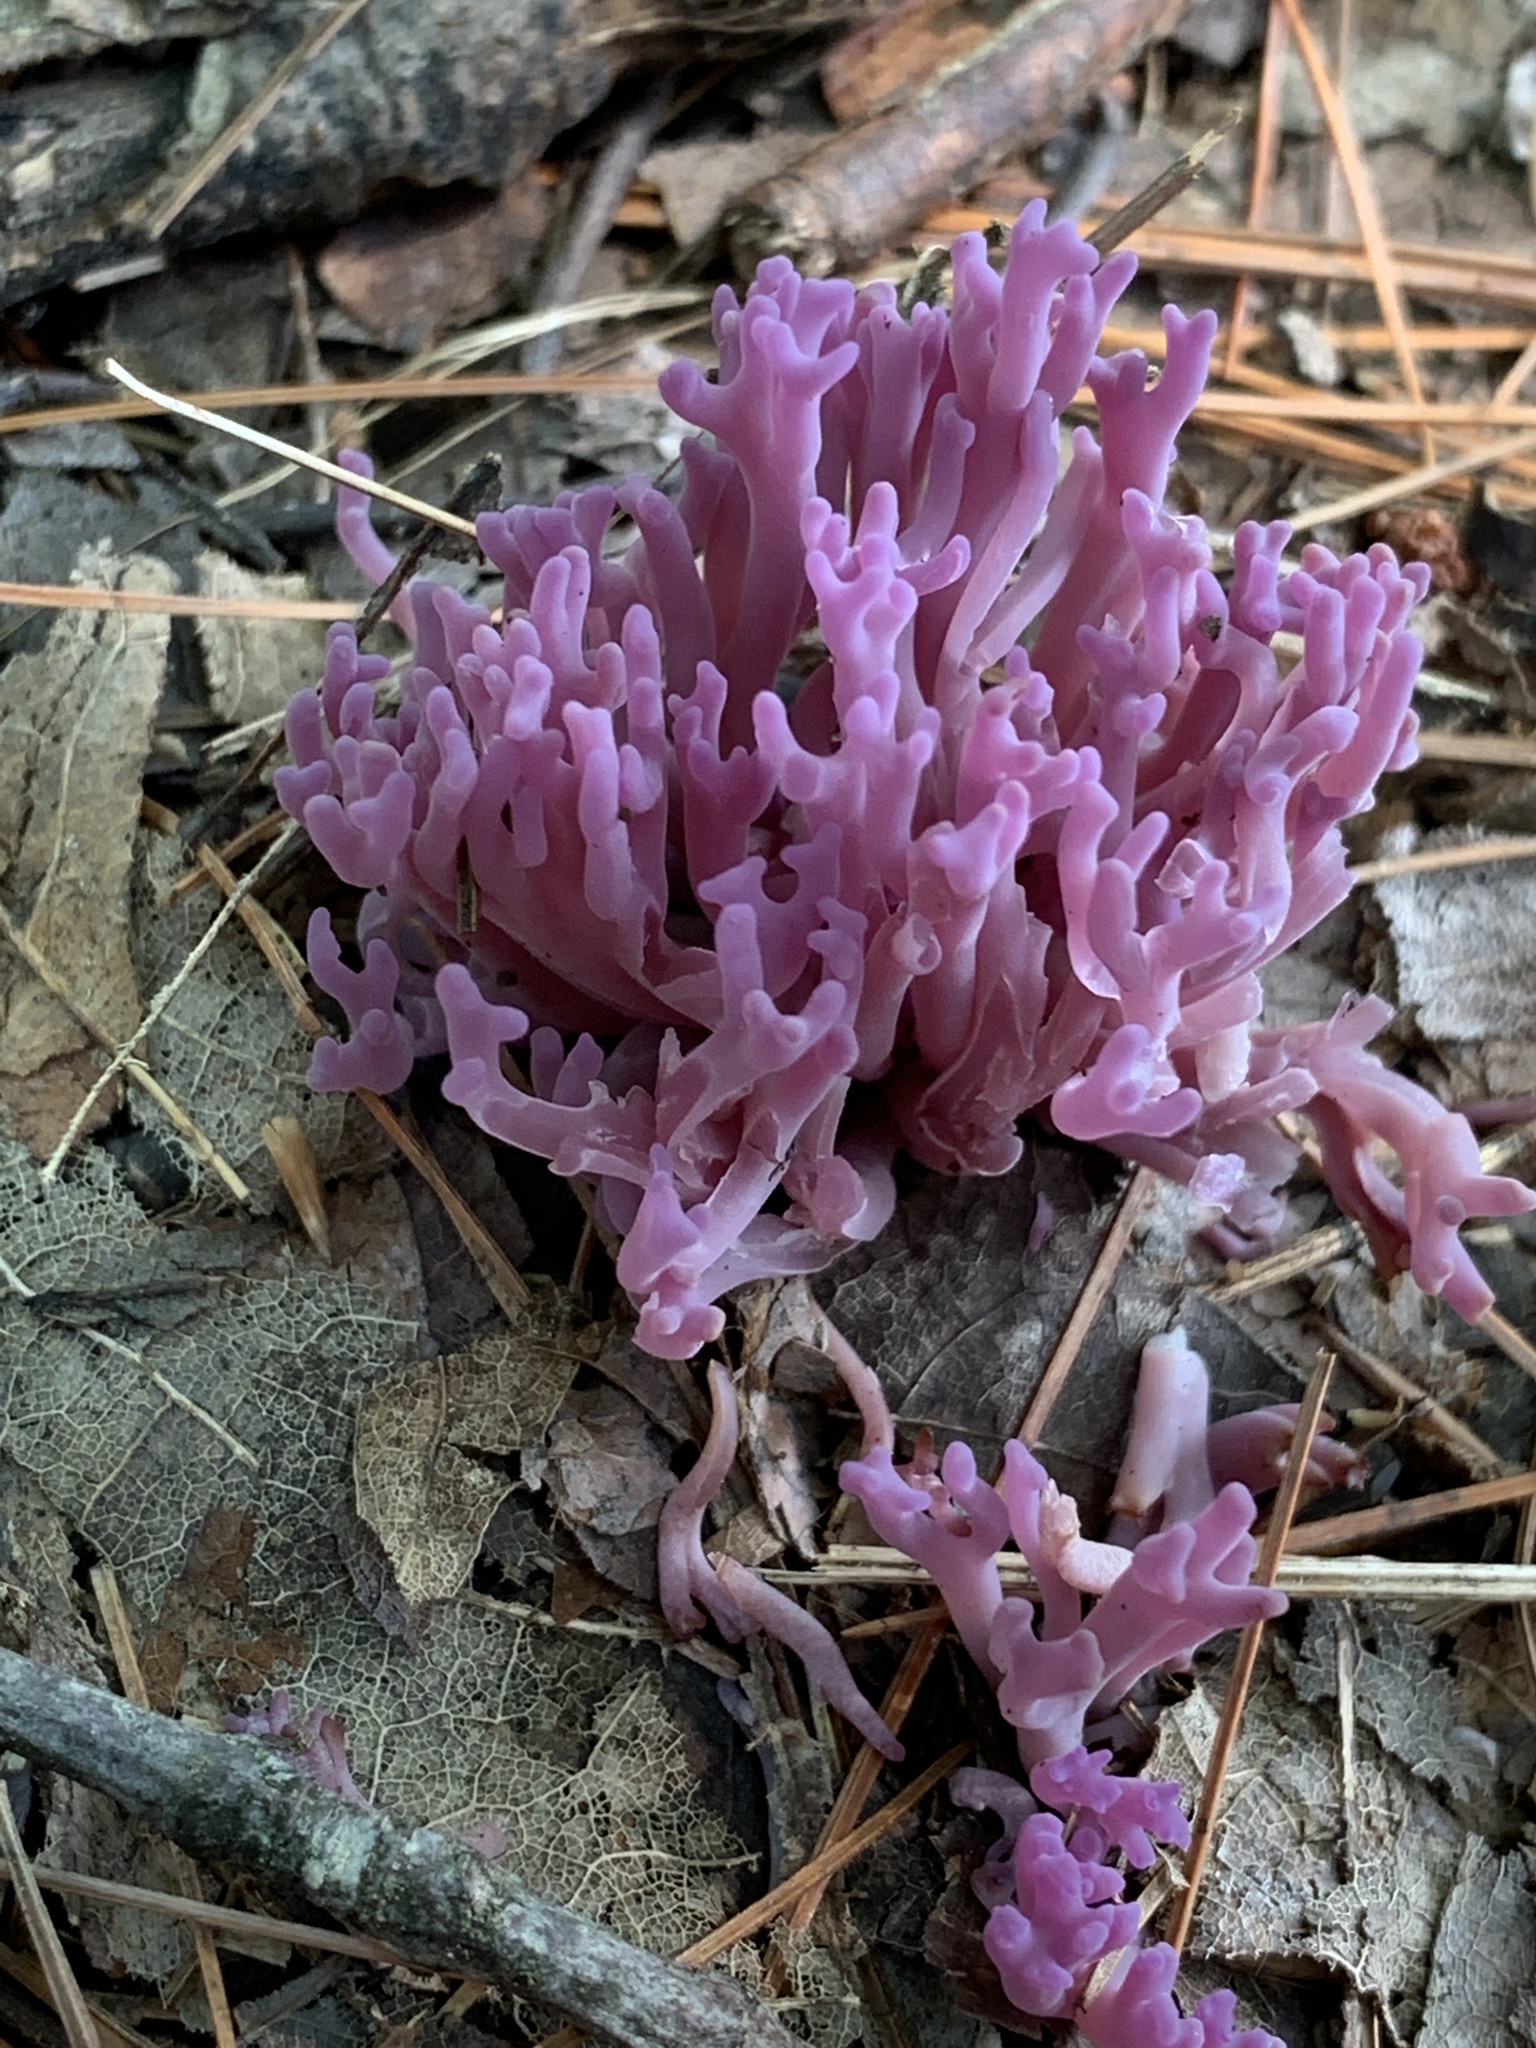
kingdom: Fungi
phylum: Basidiomycota
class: Agaricomycetes
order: Agaricales
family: Clavariaceae
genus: Clavaria
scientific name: Clavaria zollingeri
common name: Violet coral
